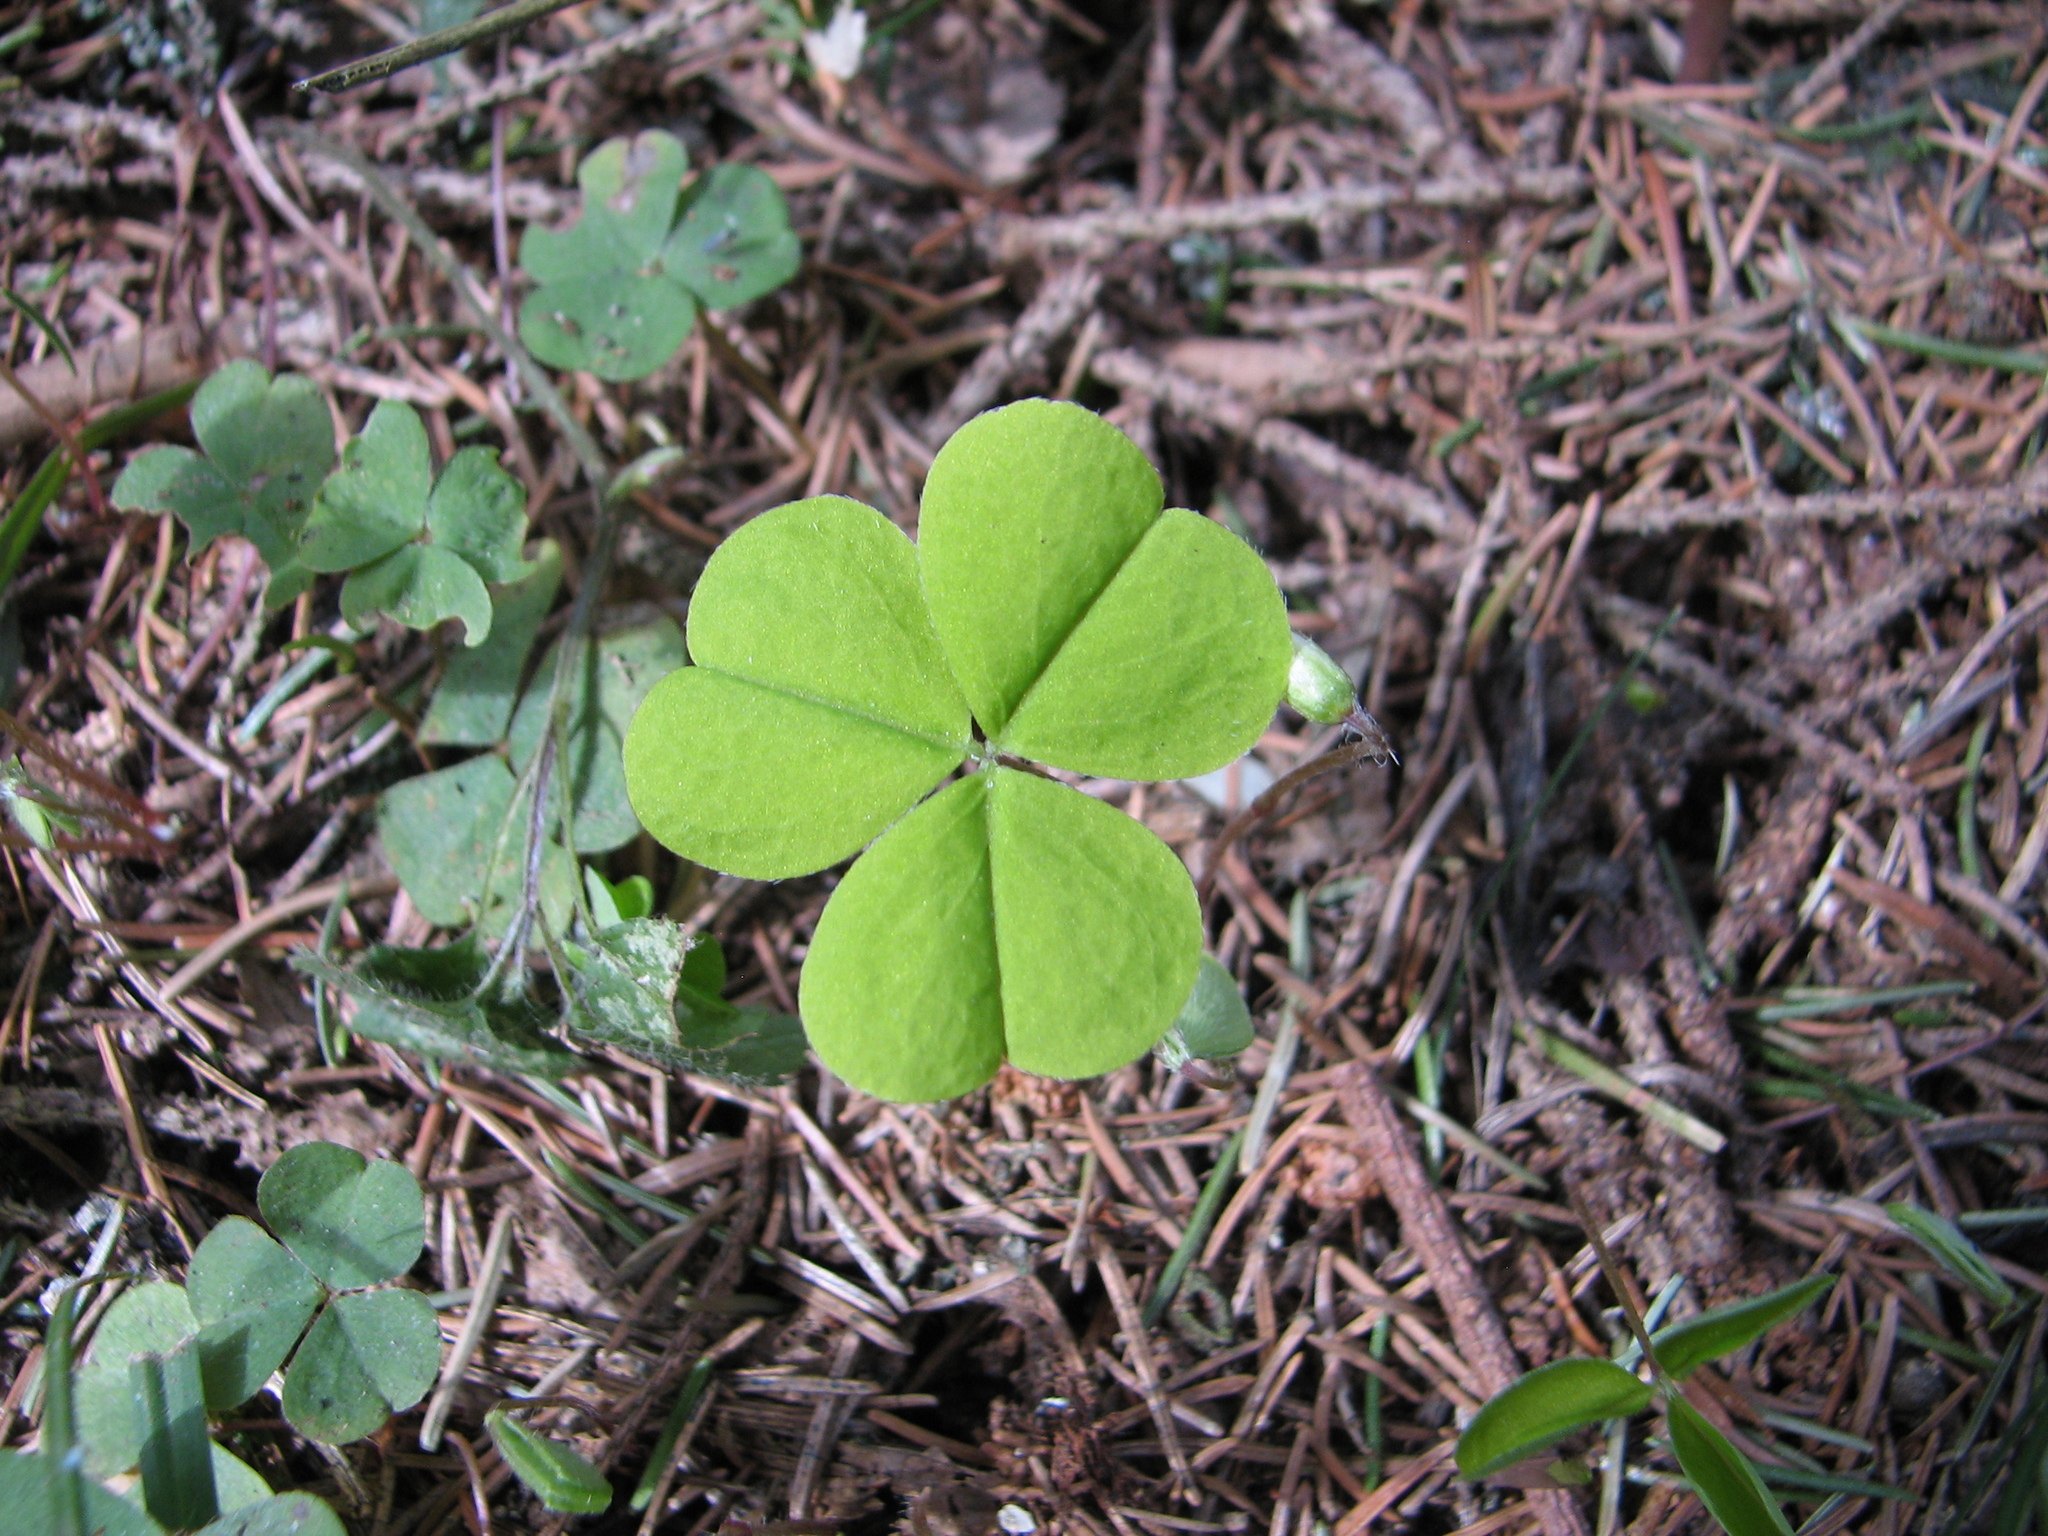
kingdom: Plantae
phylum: Tracheophyta
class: Magnoliopsida
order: Oxalidales
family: Oxalidaceae
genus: Oxalis
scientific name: Oxalis acetosella
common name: Wood-sorrel
